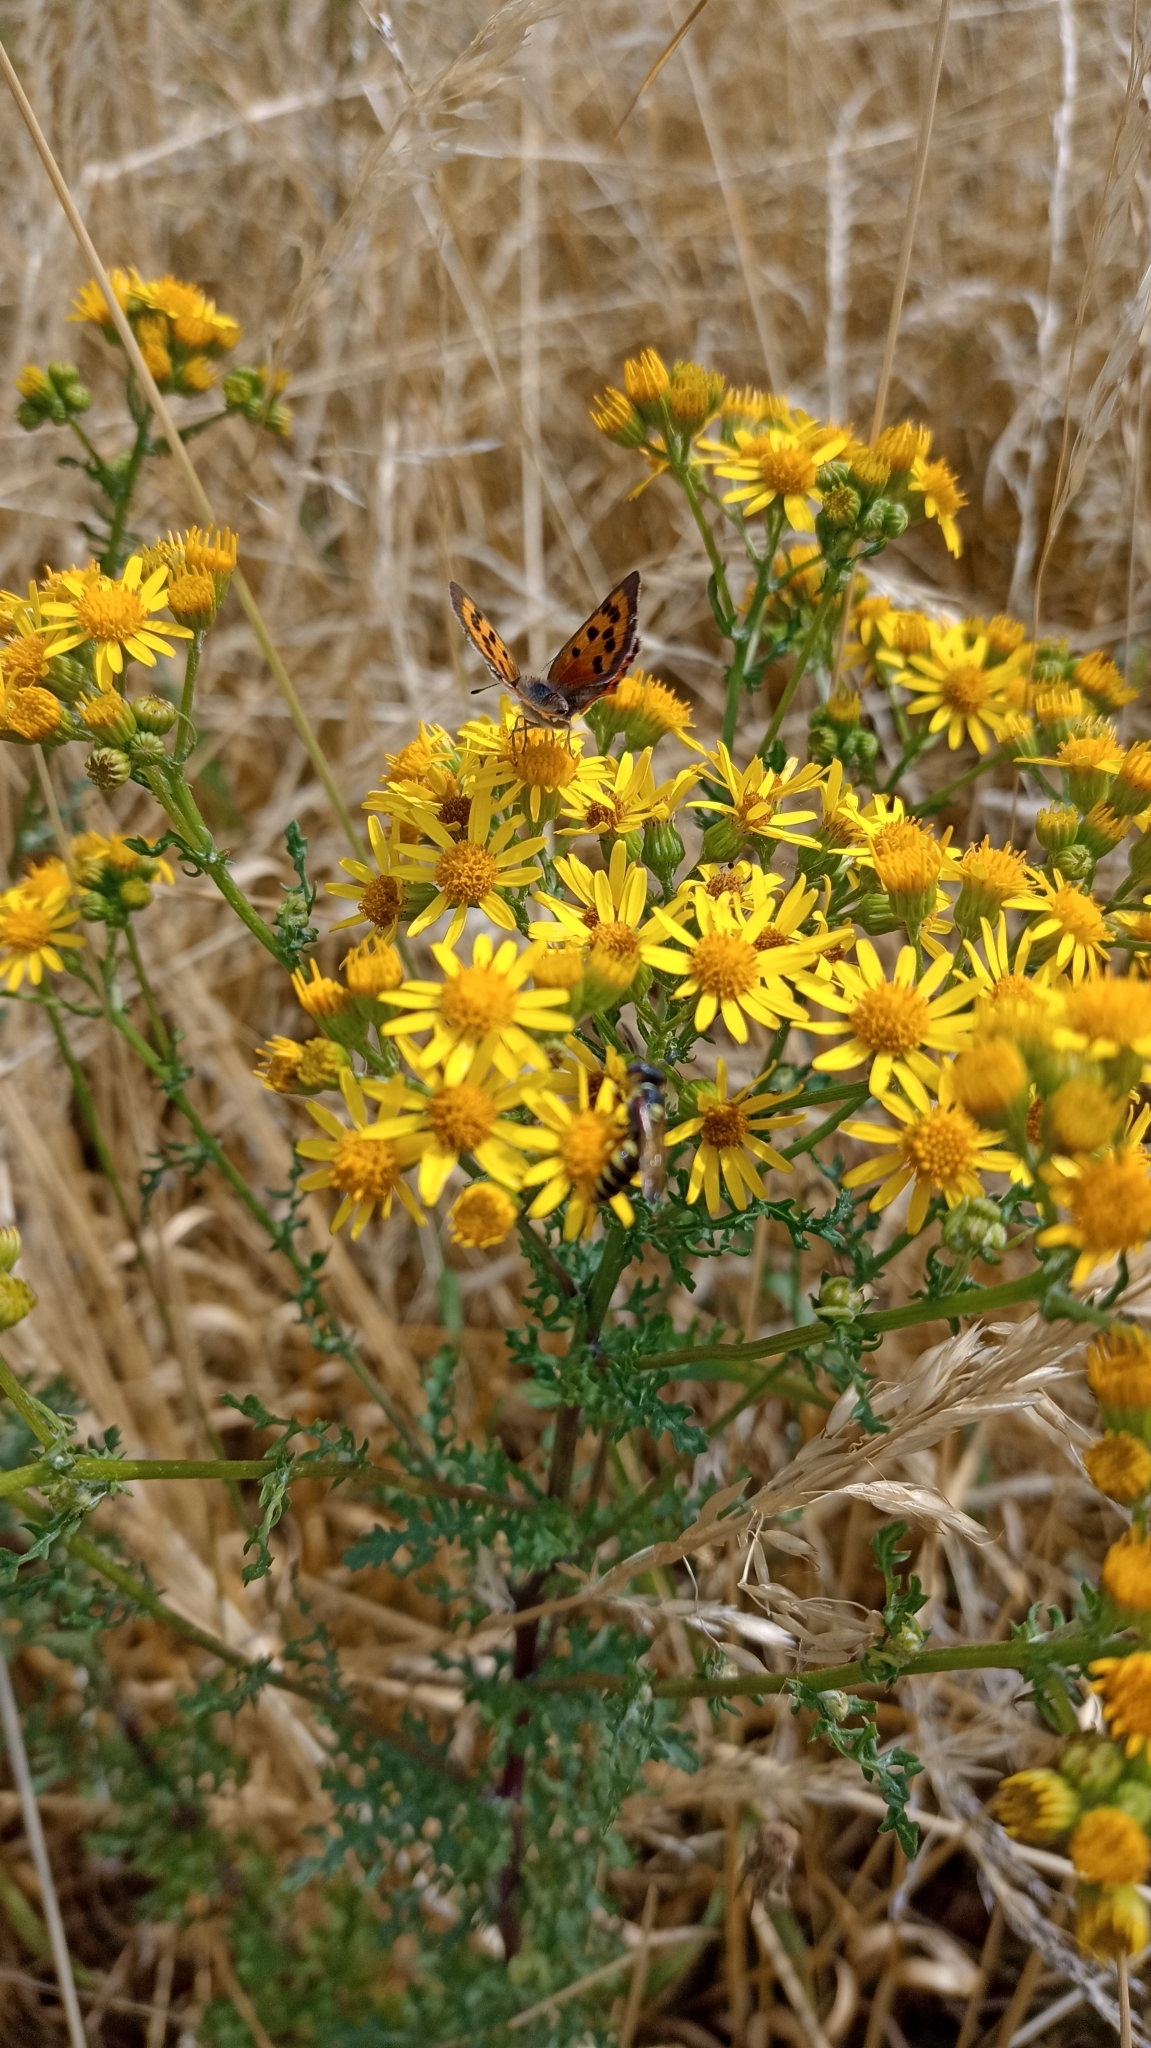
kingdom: Animalia
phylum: Arthropoda
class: Insecta
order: Lepidoptera
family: Lycaenidae
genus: Lycaena
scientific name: Lycaena phlaeas
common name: Small copper
